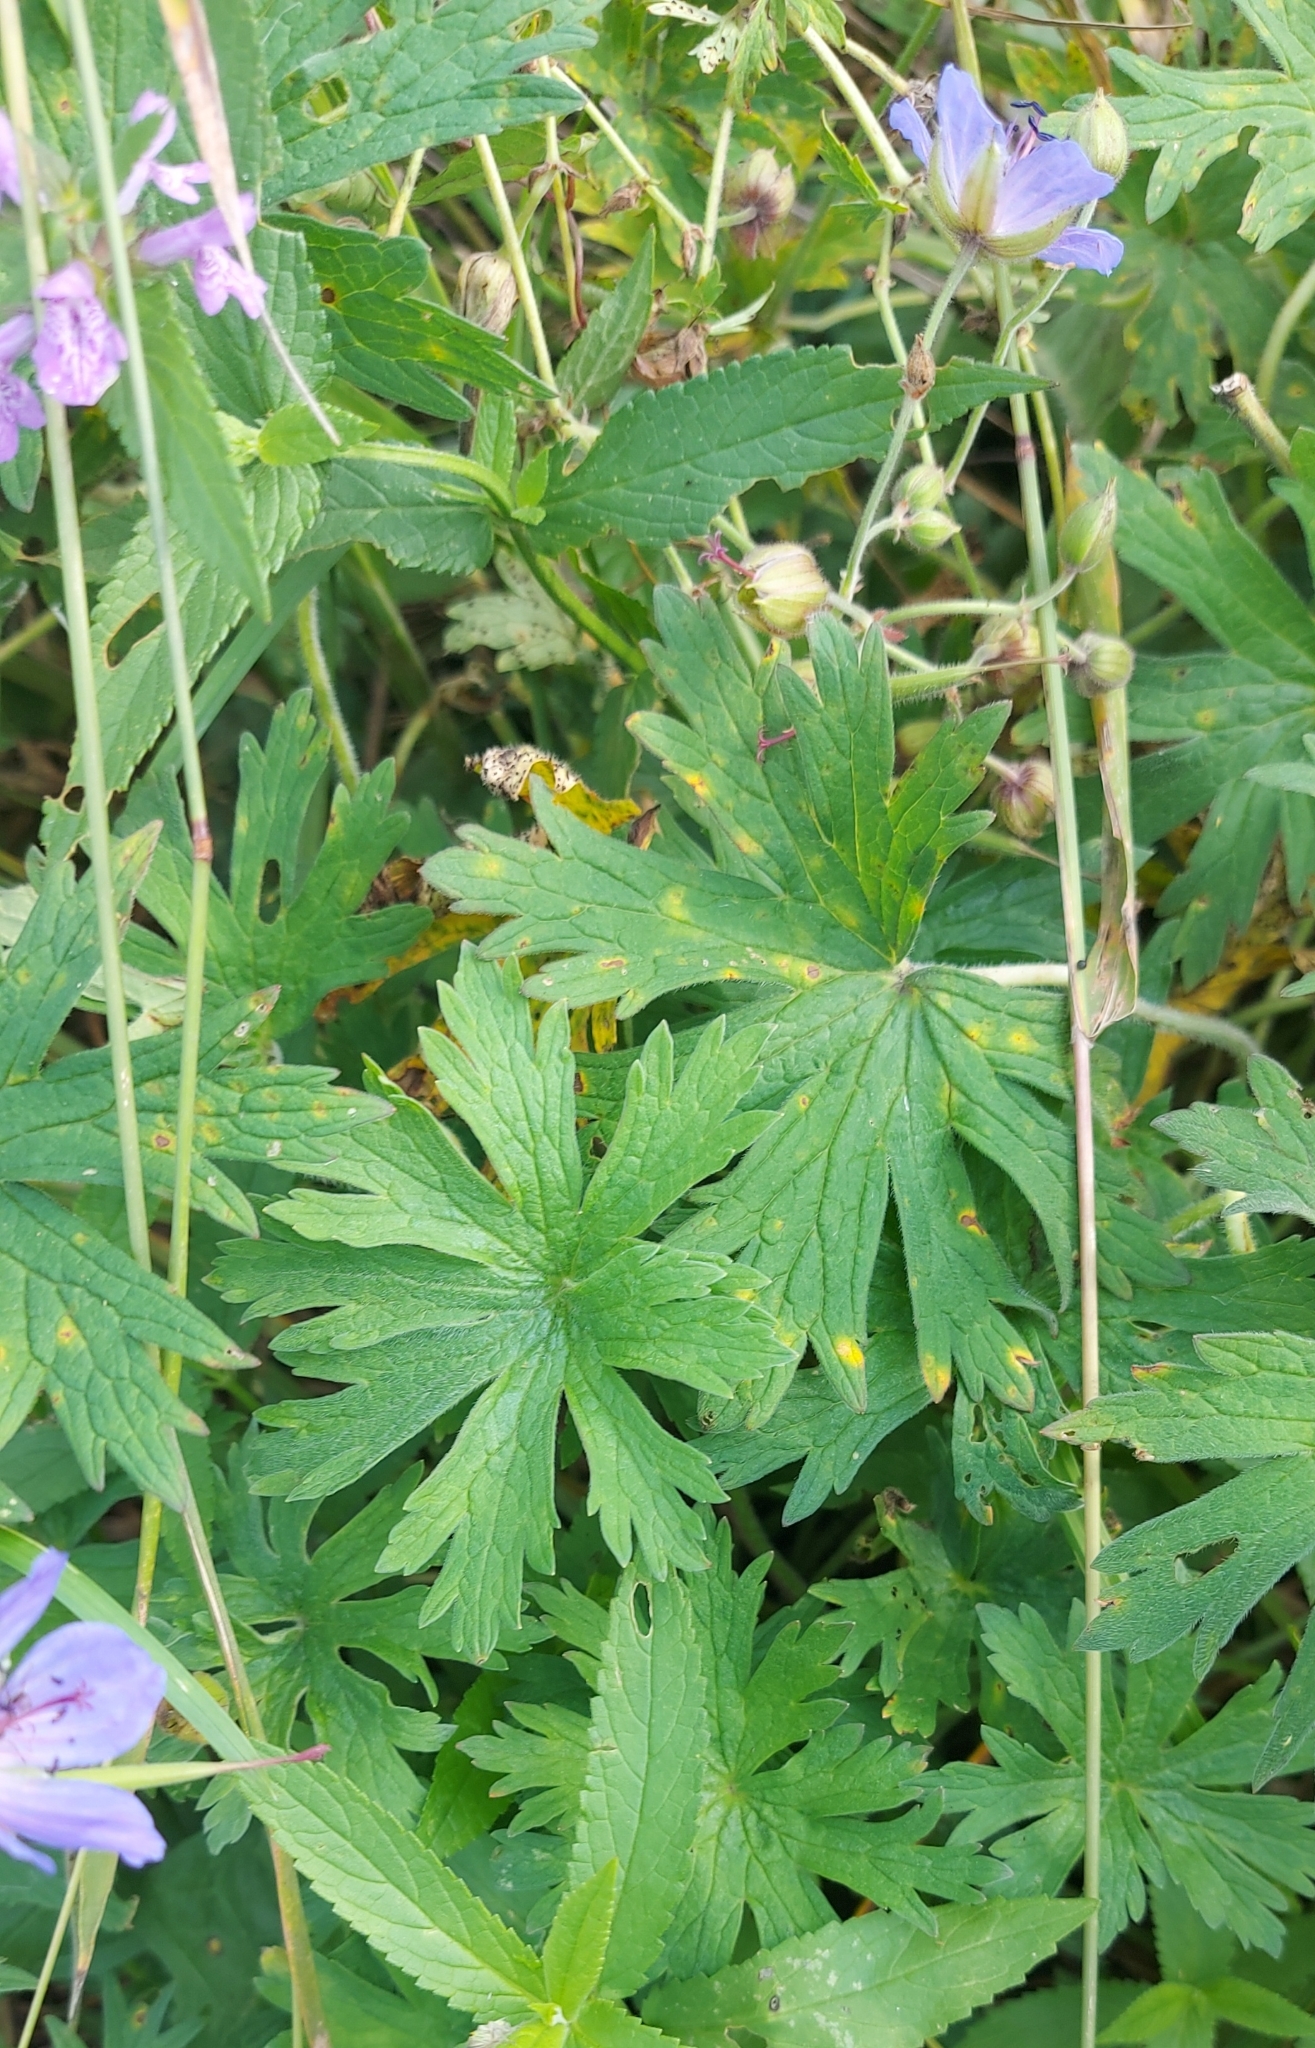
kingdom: Plantae
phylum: Tracheophyta
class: Magnoliopsida
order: Geraniales
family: Geraniaceae
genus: Geranium
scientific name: Geranium pratense
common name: Meadow crane's-bill
